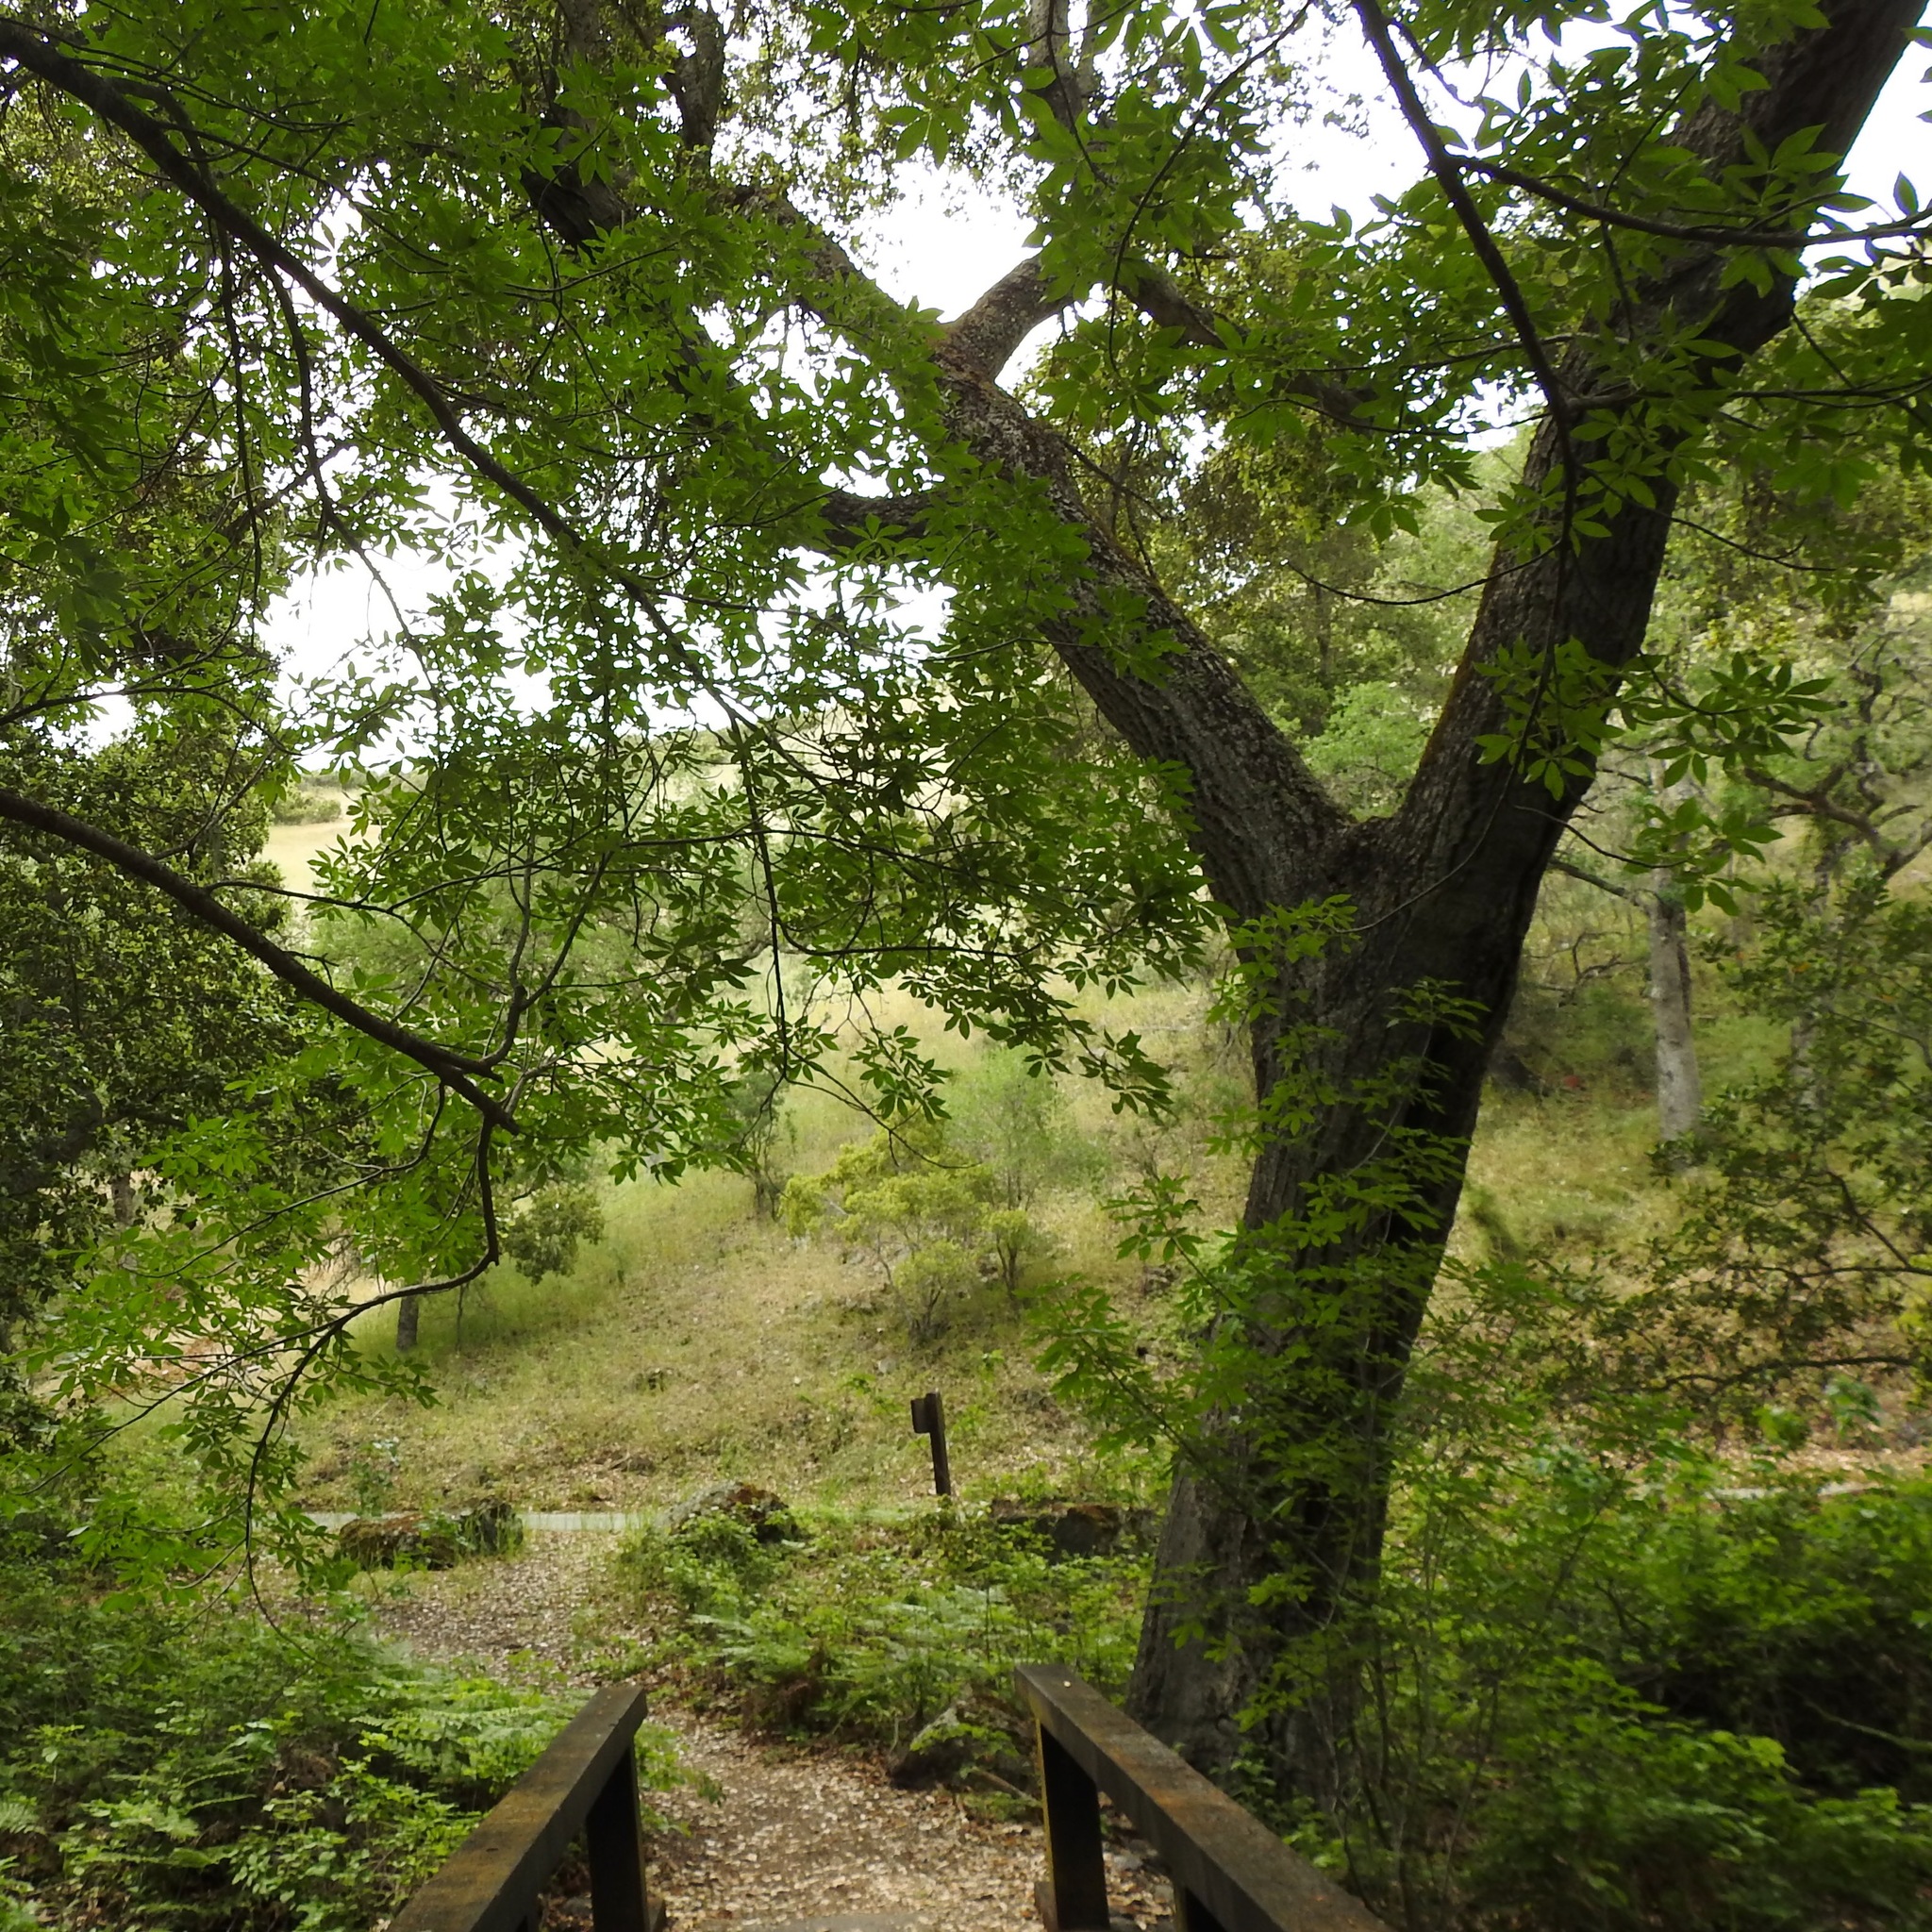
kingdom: Plantae
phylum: Tracheophyta
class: Magnoliopsida
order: Sapindales
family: Sapindaceae
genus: Aesculus
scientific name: Aesculus californica
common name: California buckeye
